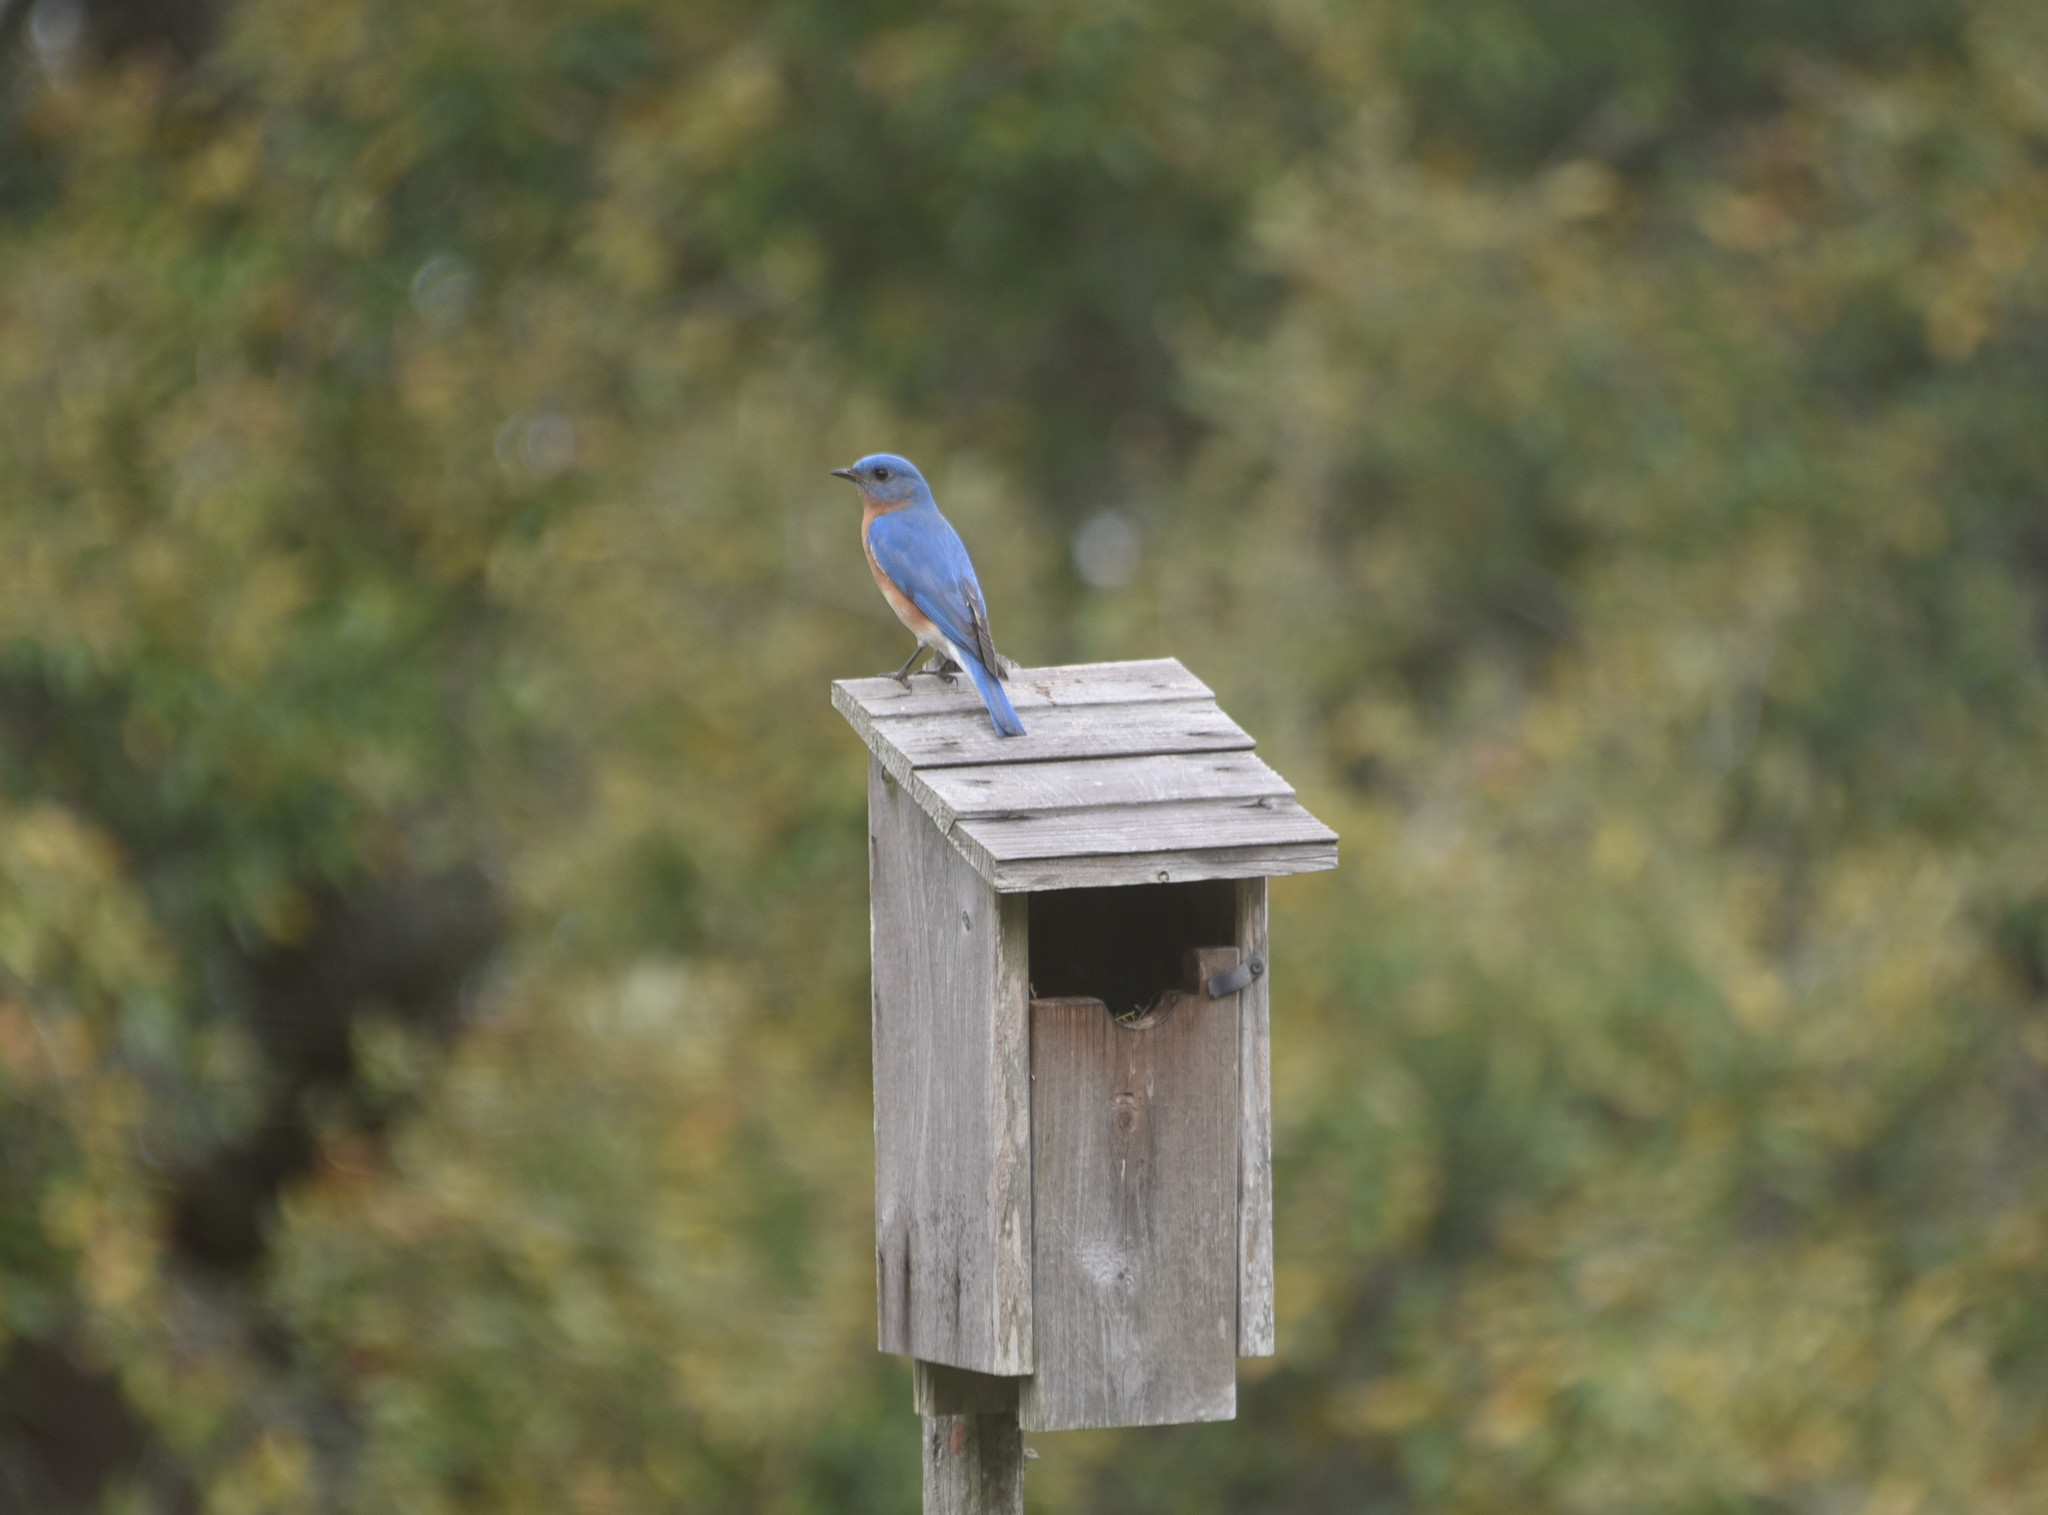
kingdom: Animalia
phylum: Chordata
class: Aves
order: Passeriformes
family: Turdidae
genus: Sialia
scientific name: Sialia sialis
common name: Eastern bluebird
